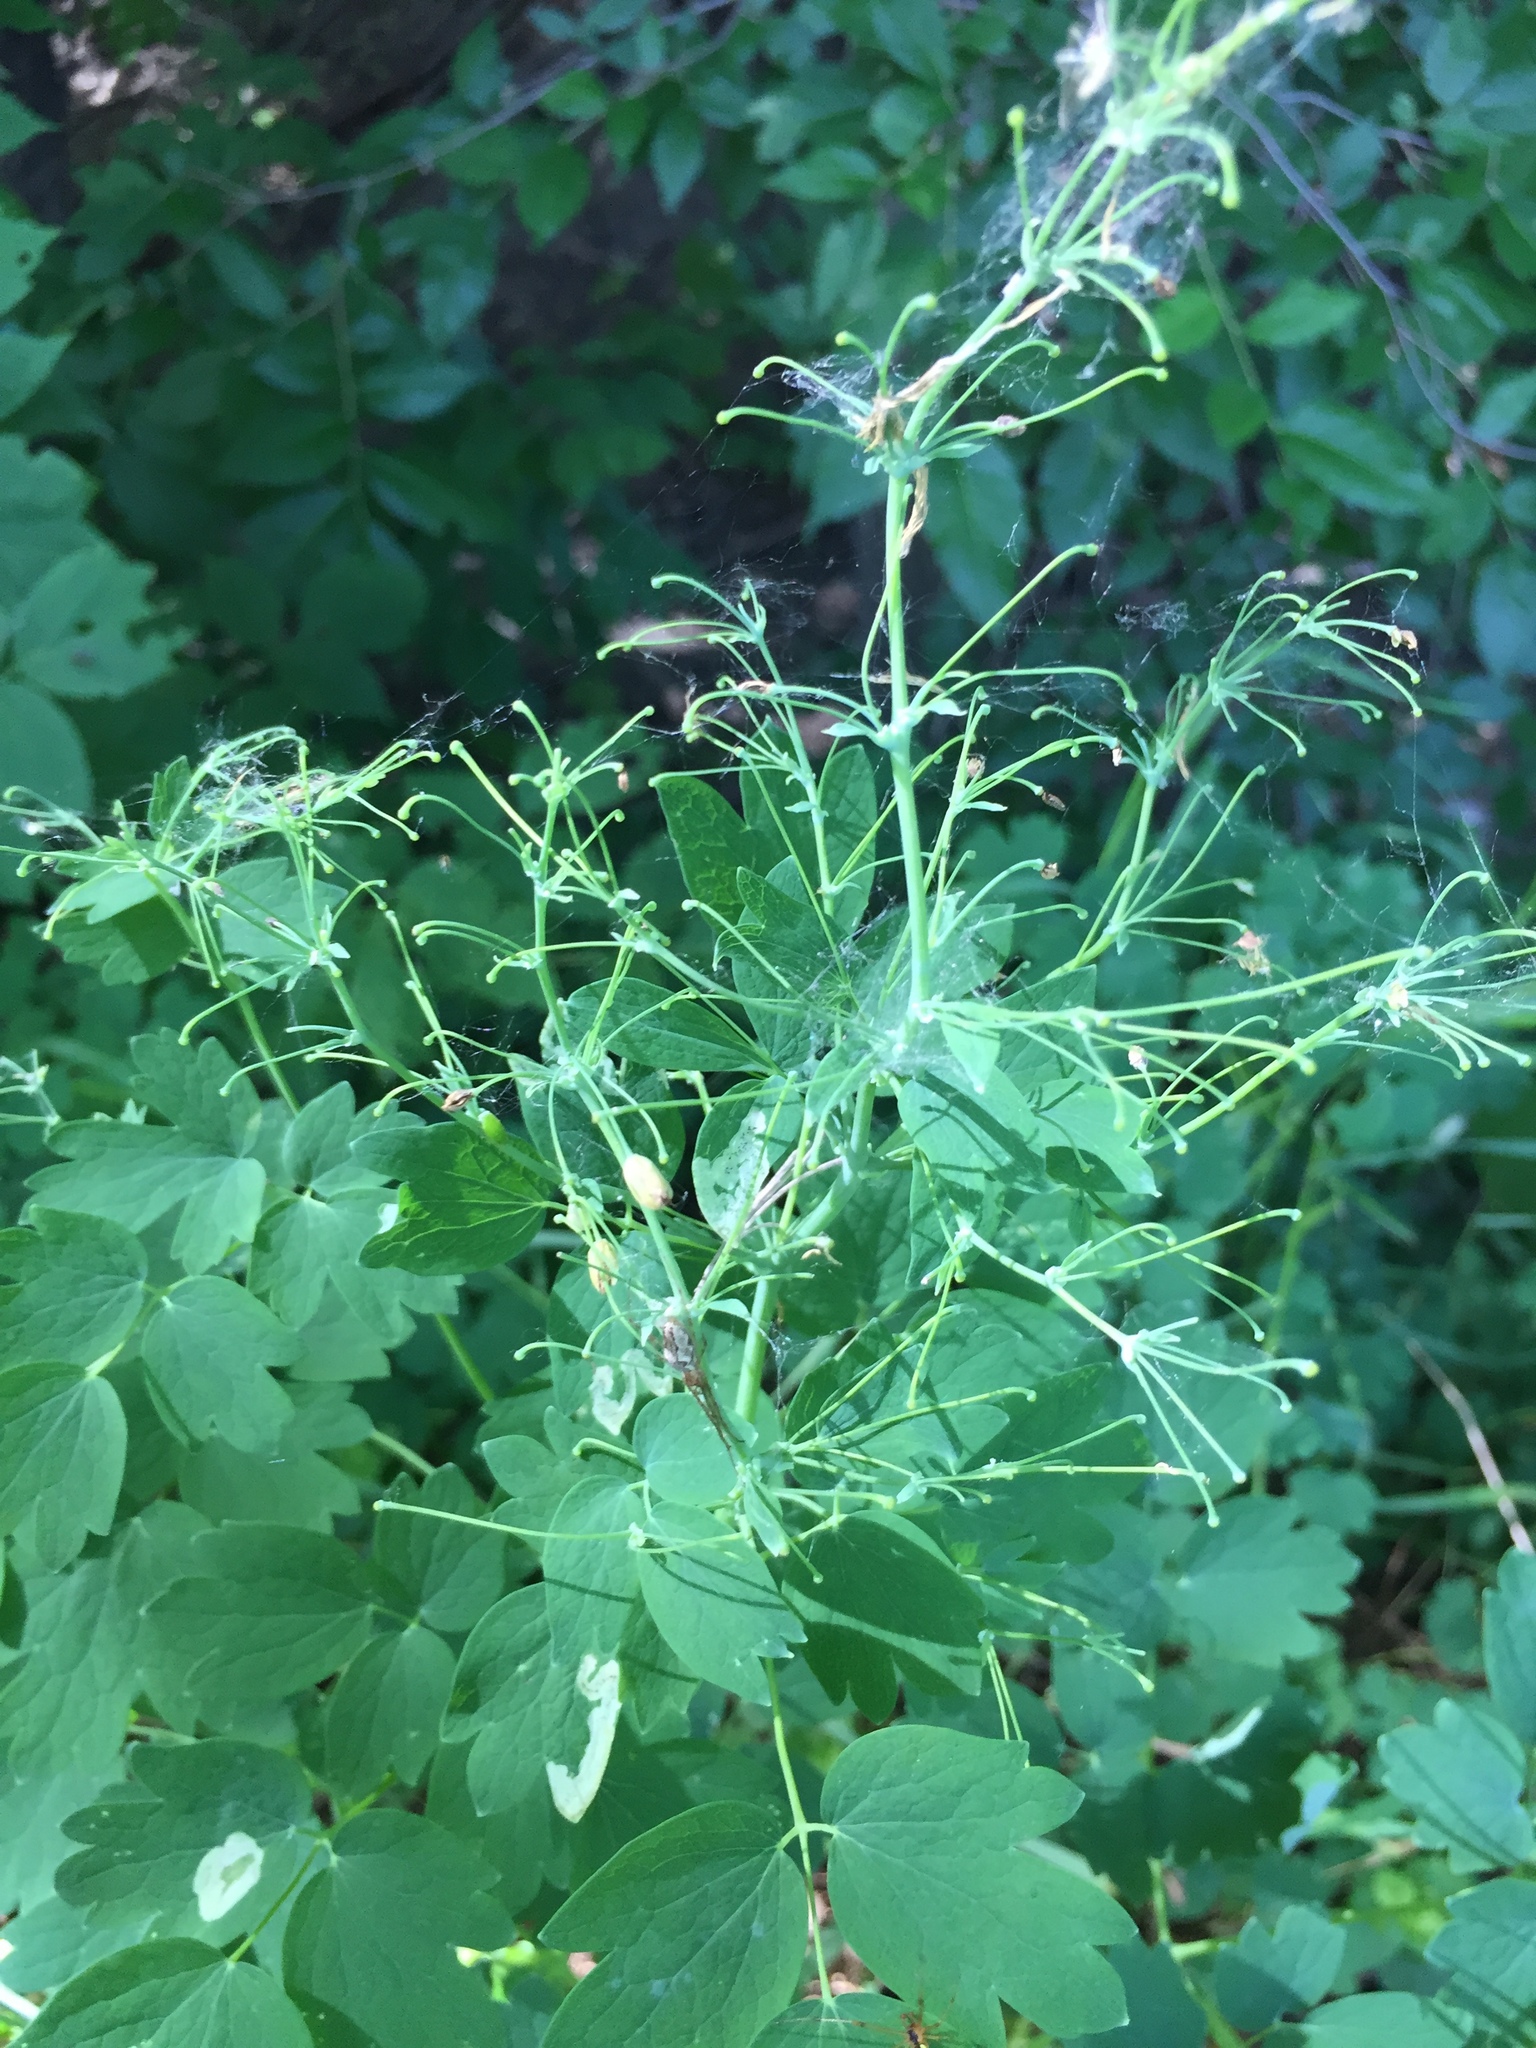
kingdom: Plantae
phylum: Tracheophyta
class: Magnoliopsida
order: Ranunculales
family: Ranunculaceae
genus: Thalictrum
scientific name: Thalictrum venulosum
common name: Early meadow-rue
